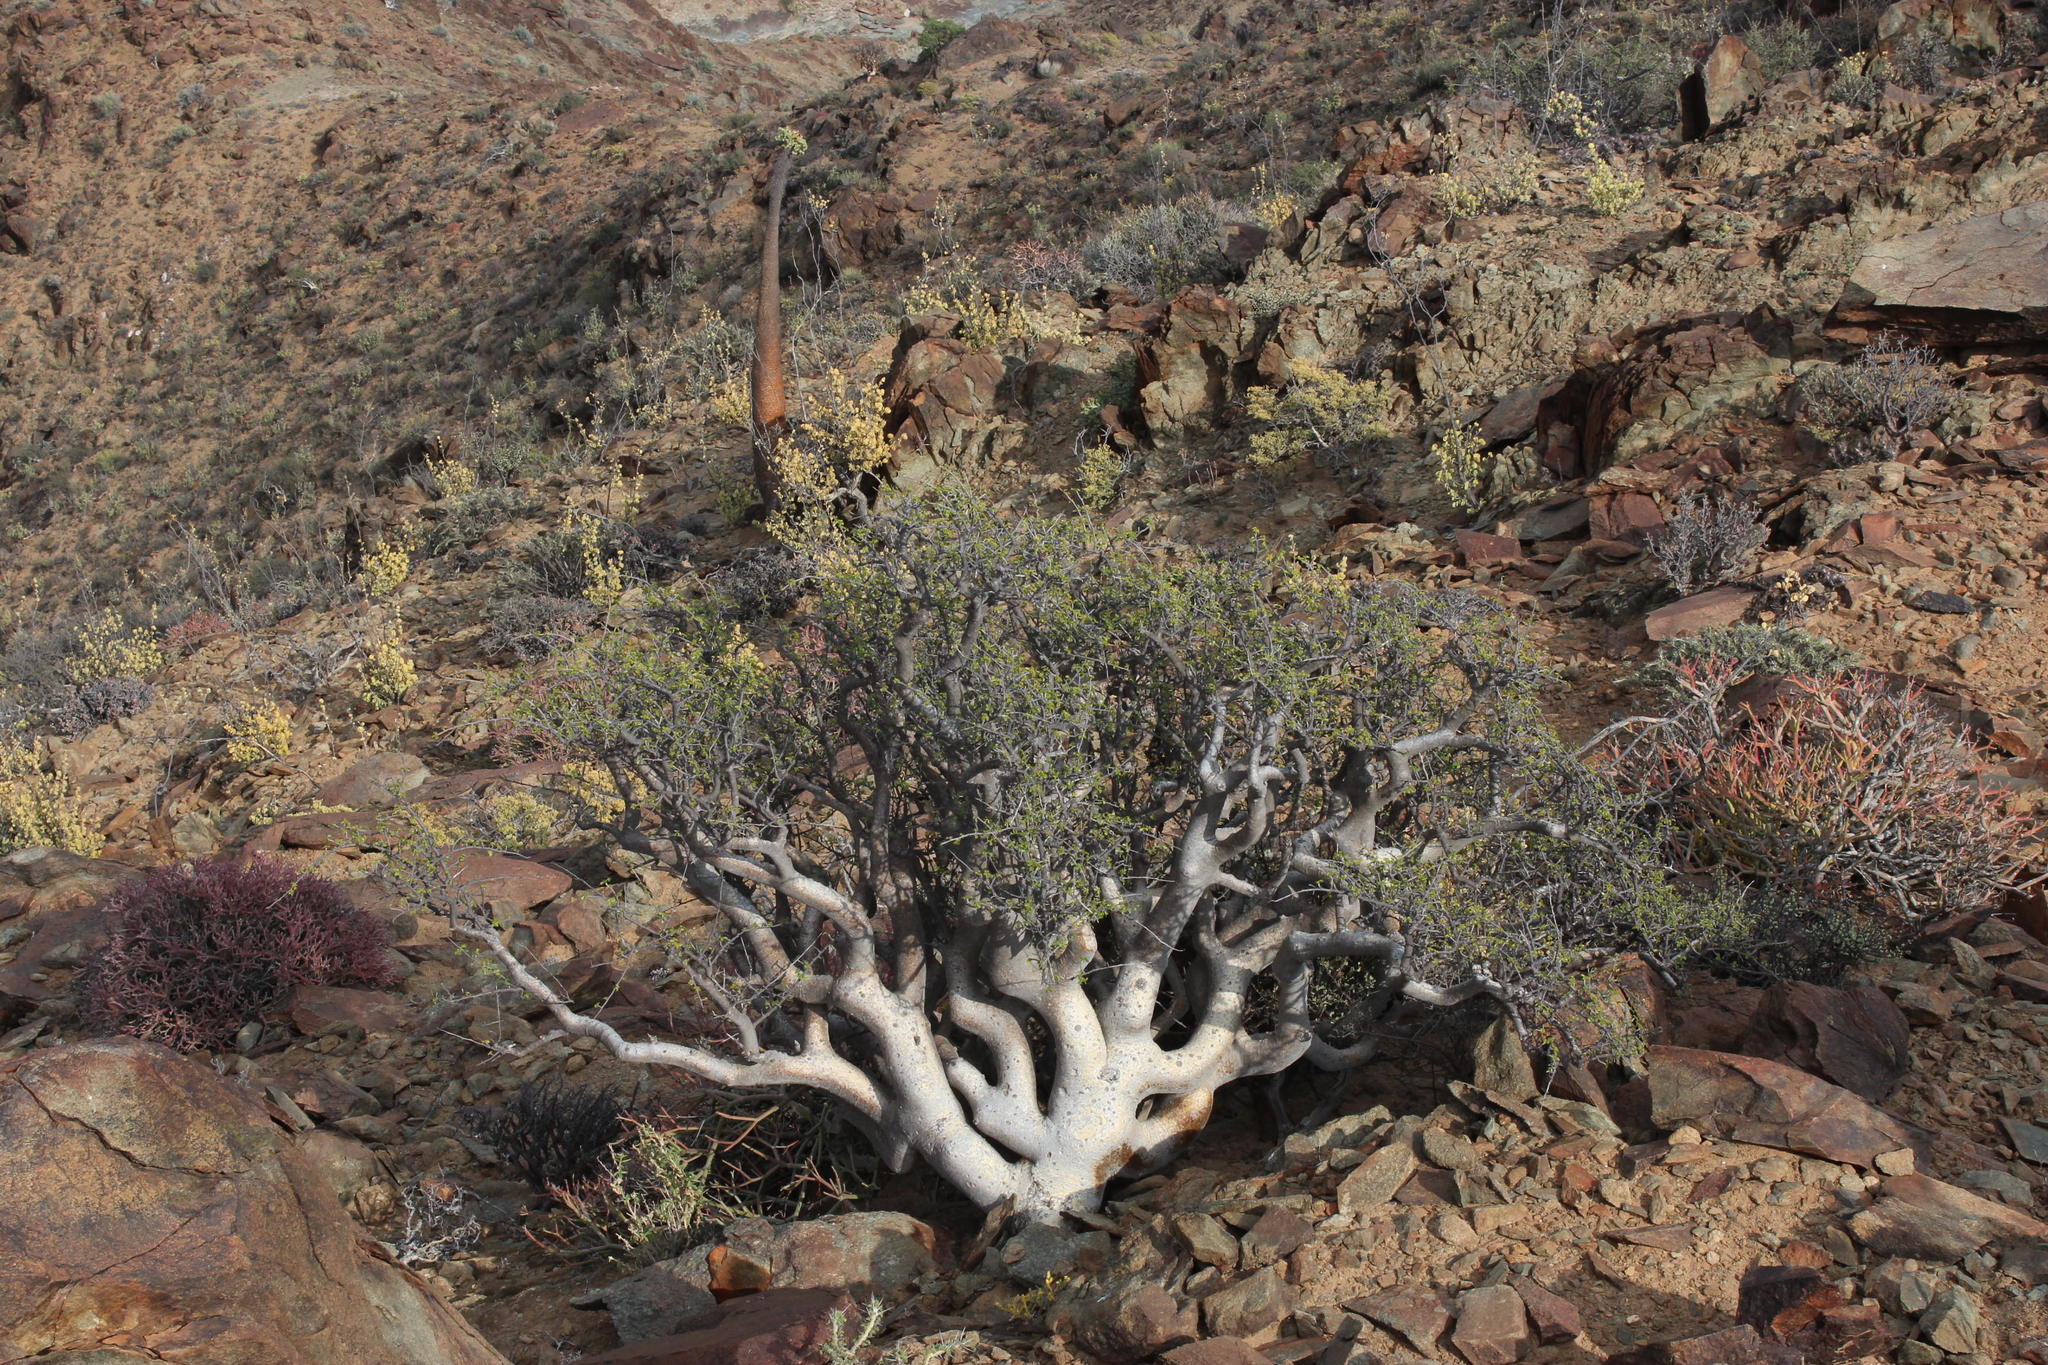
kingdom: Plantae
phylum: Tracheophyta
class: Magnoliopsida
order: Sapindales
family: Burseraceae
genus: Commiphora
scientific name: Commiphora capensis
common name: Namaqua commiphora
